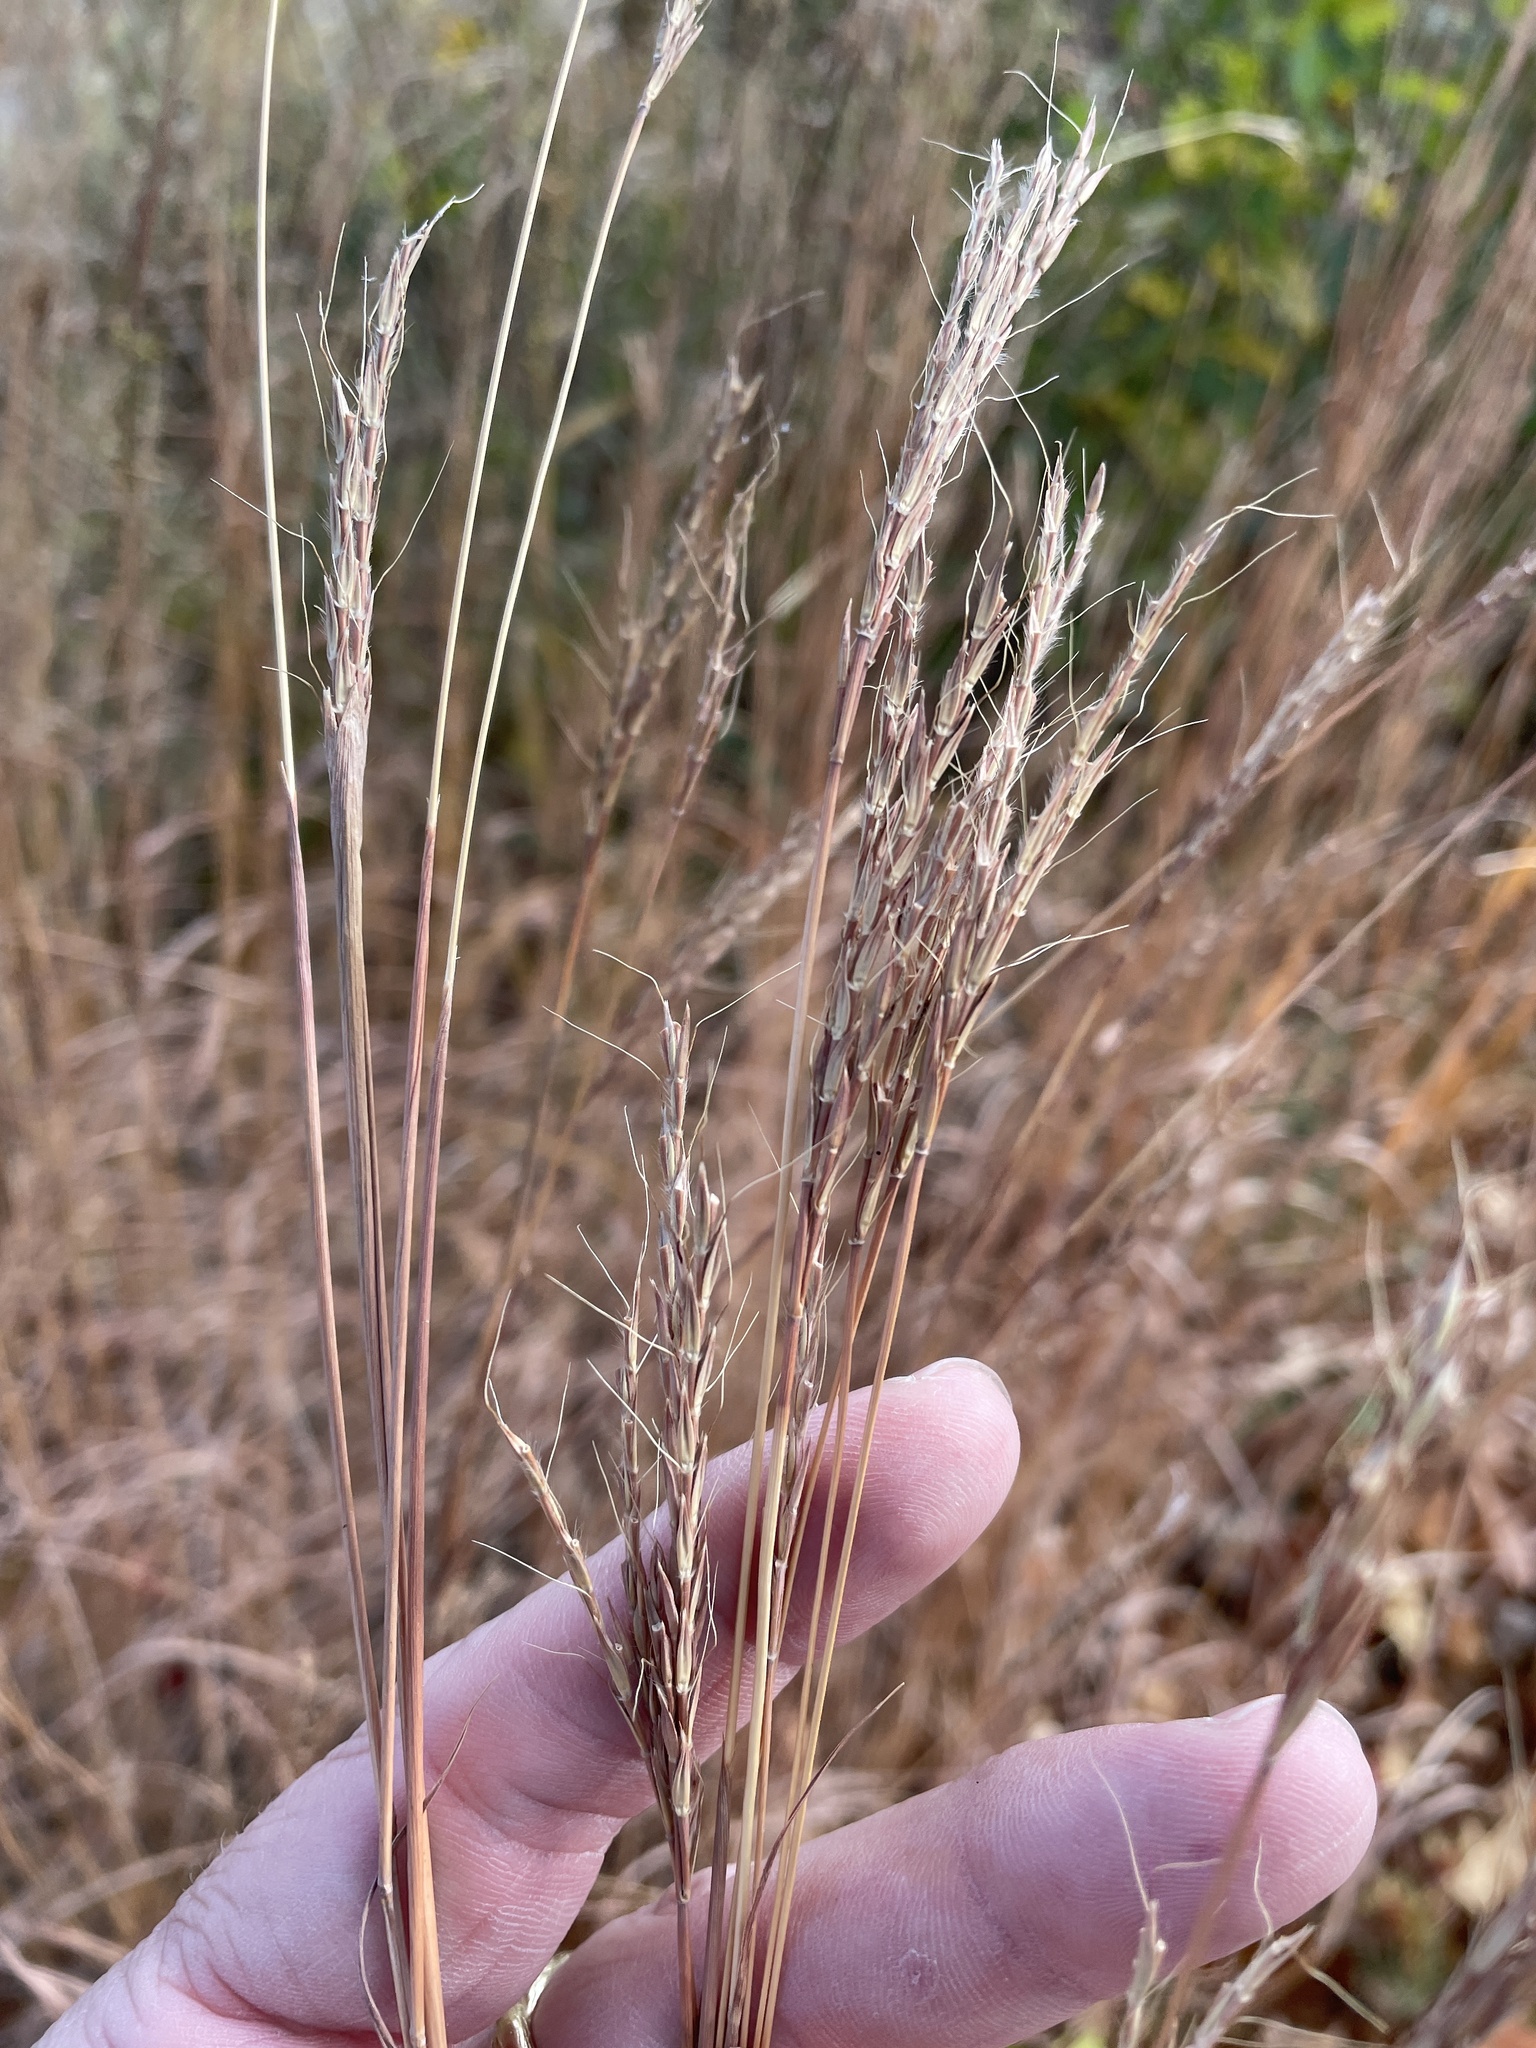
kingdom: Plantae
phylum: Tracheophyta
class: Liliopsida
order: Poales
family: Poaceae
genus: Andropogon
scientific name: Andropogon gerardi
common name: Big bluestem
